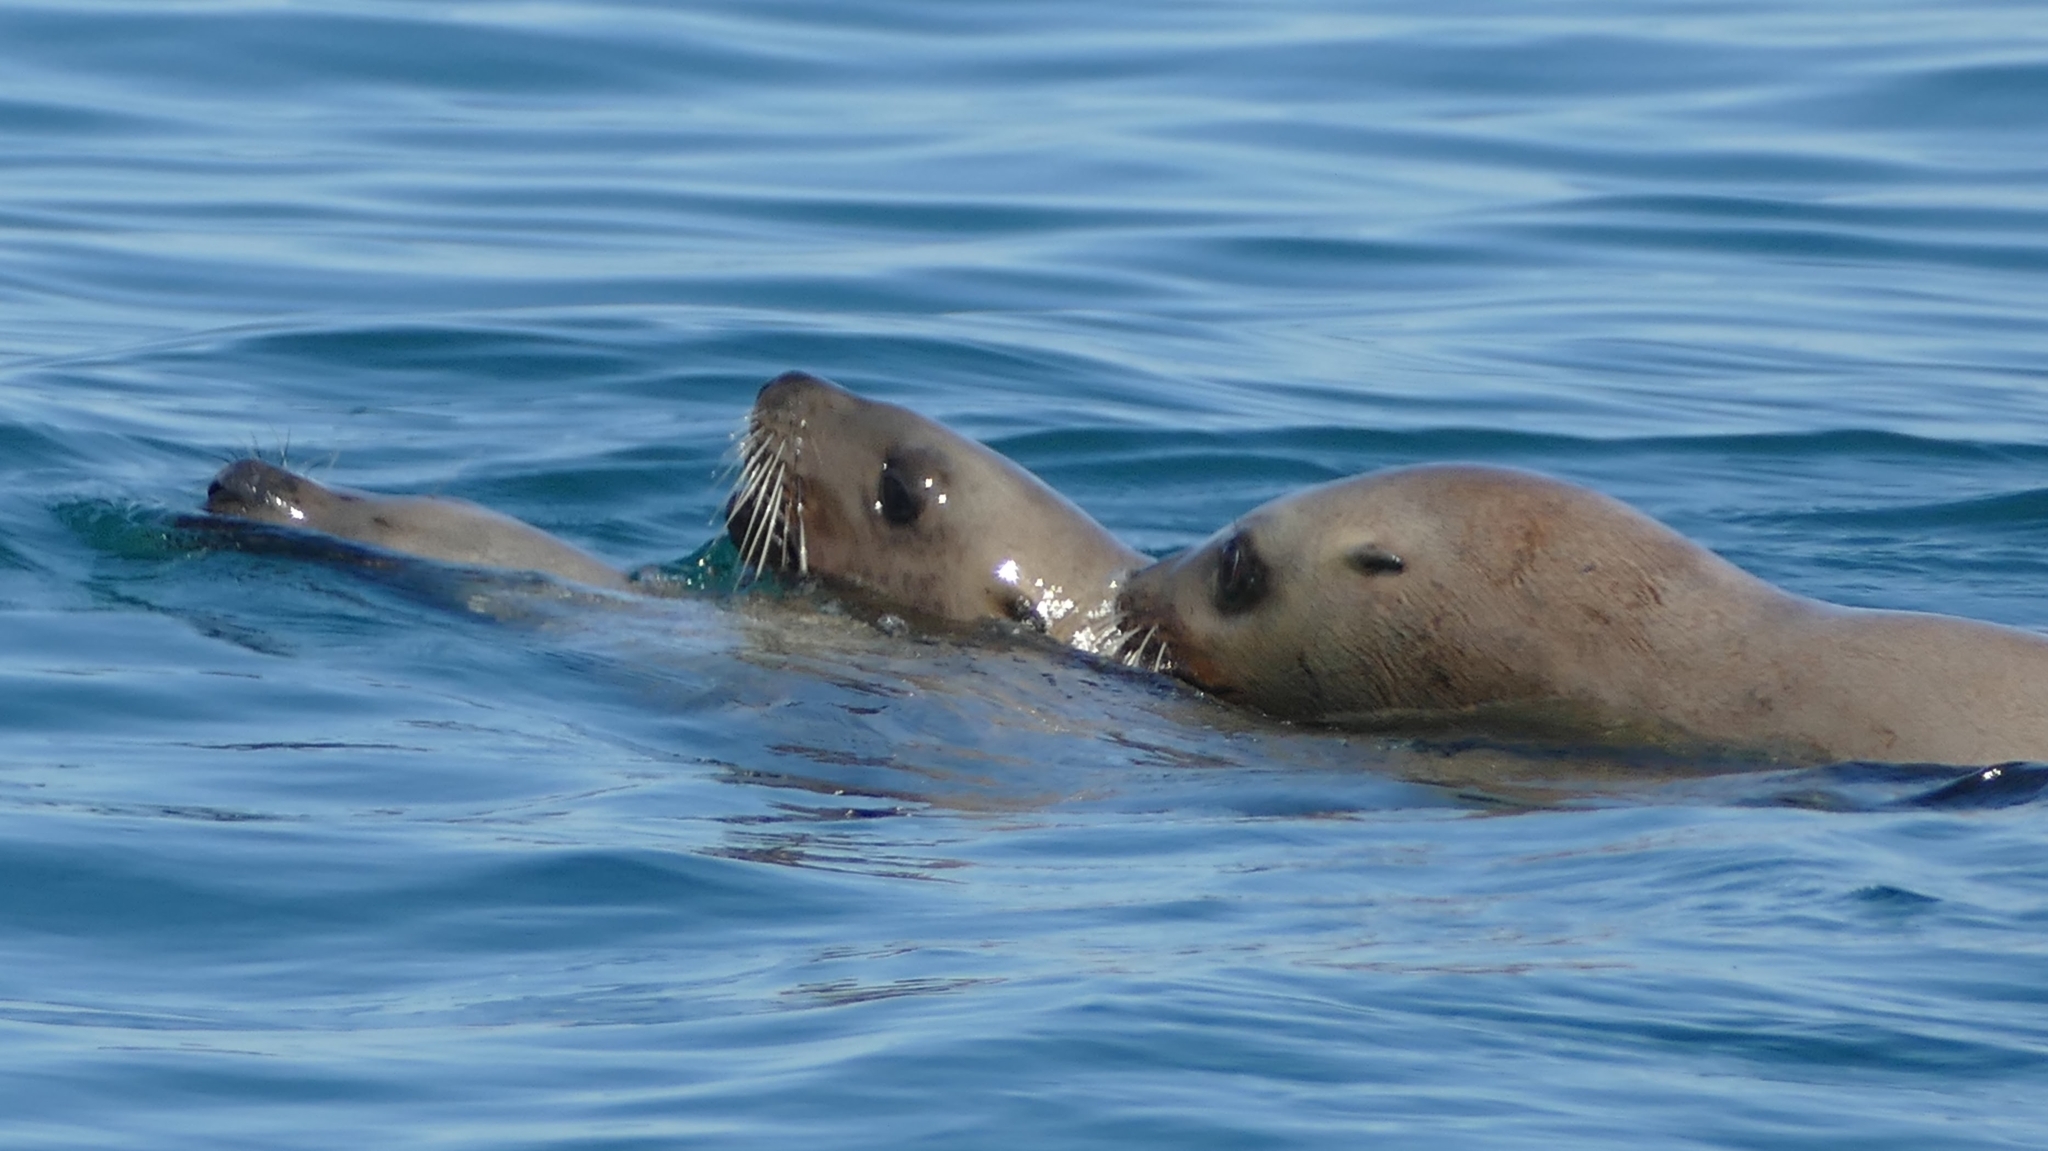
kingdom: Animalia
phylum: Chordata
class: Mammalia
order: Carnivora
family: Otariidae
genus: Eumetopias
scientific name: Eumetopias jubatus
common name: Steller sea lion
